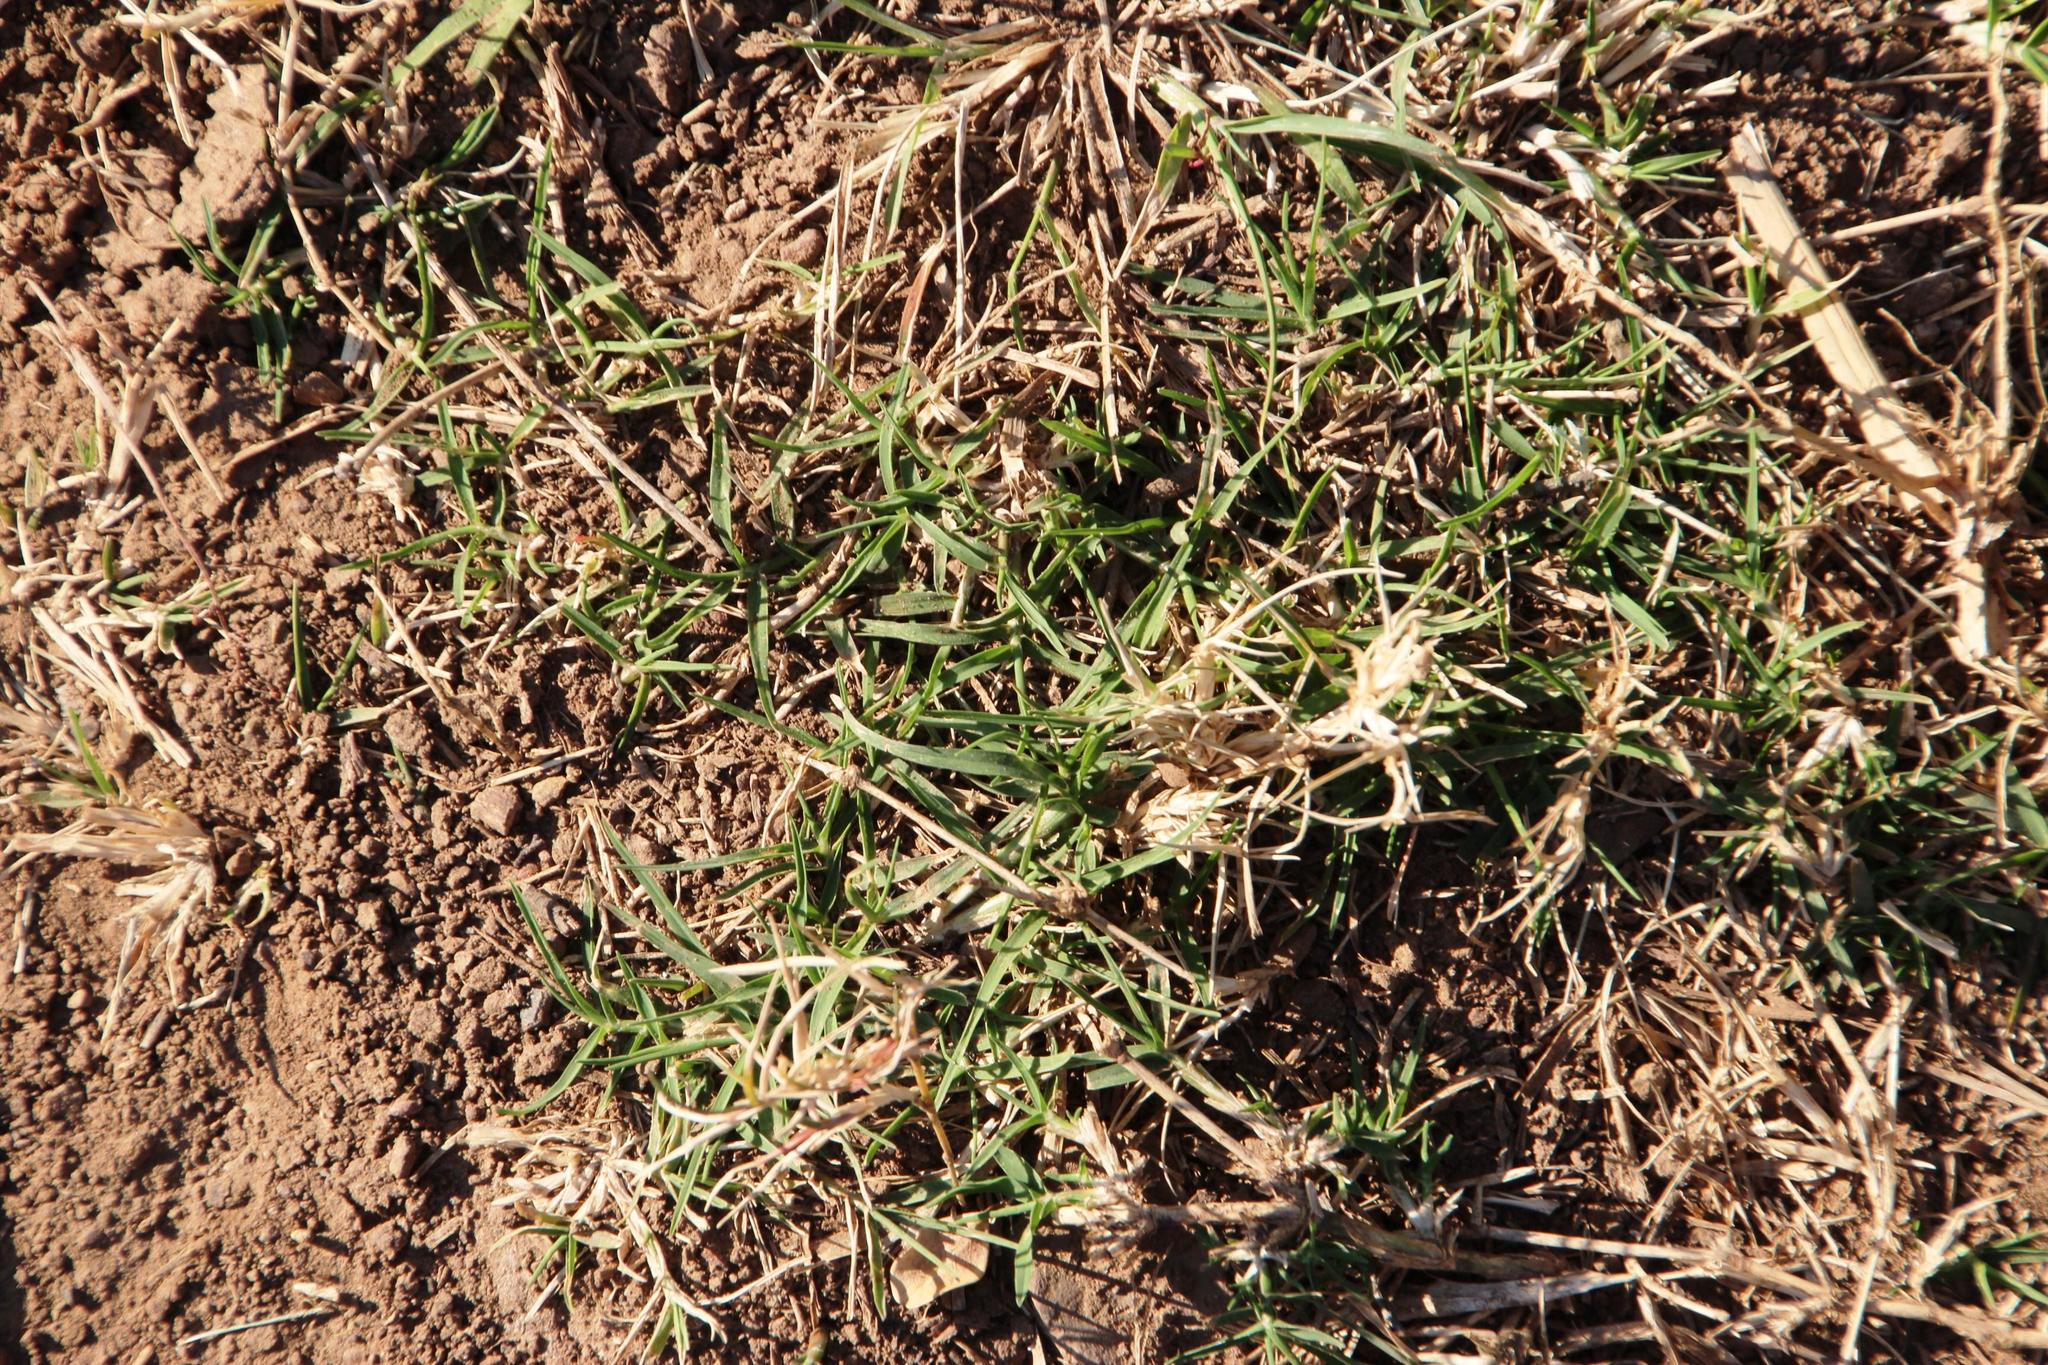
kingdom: Plantae
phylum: Tracheophyta
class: Liliopsida
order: Poales
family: Poaceae
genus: Cynodon
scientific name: Cynodon dactylon
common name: Bermuda grass
